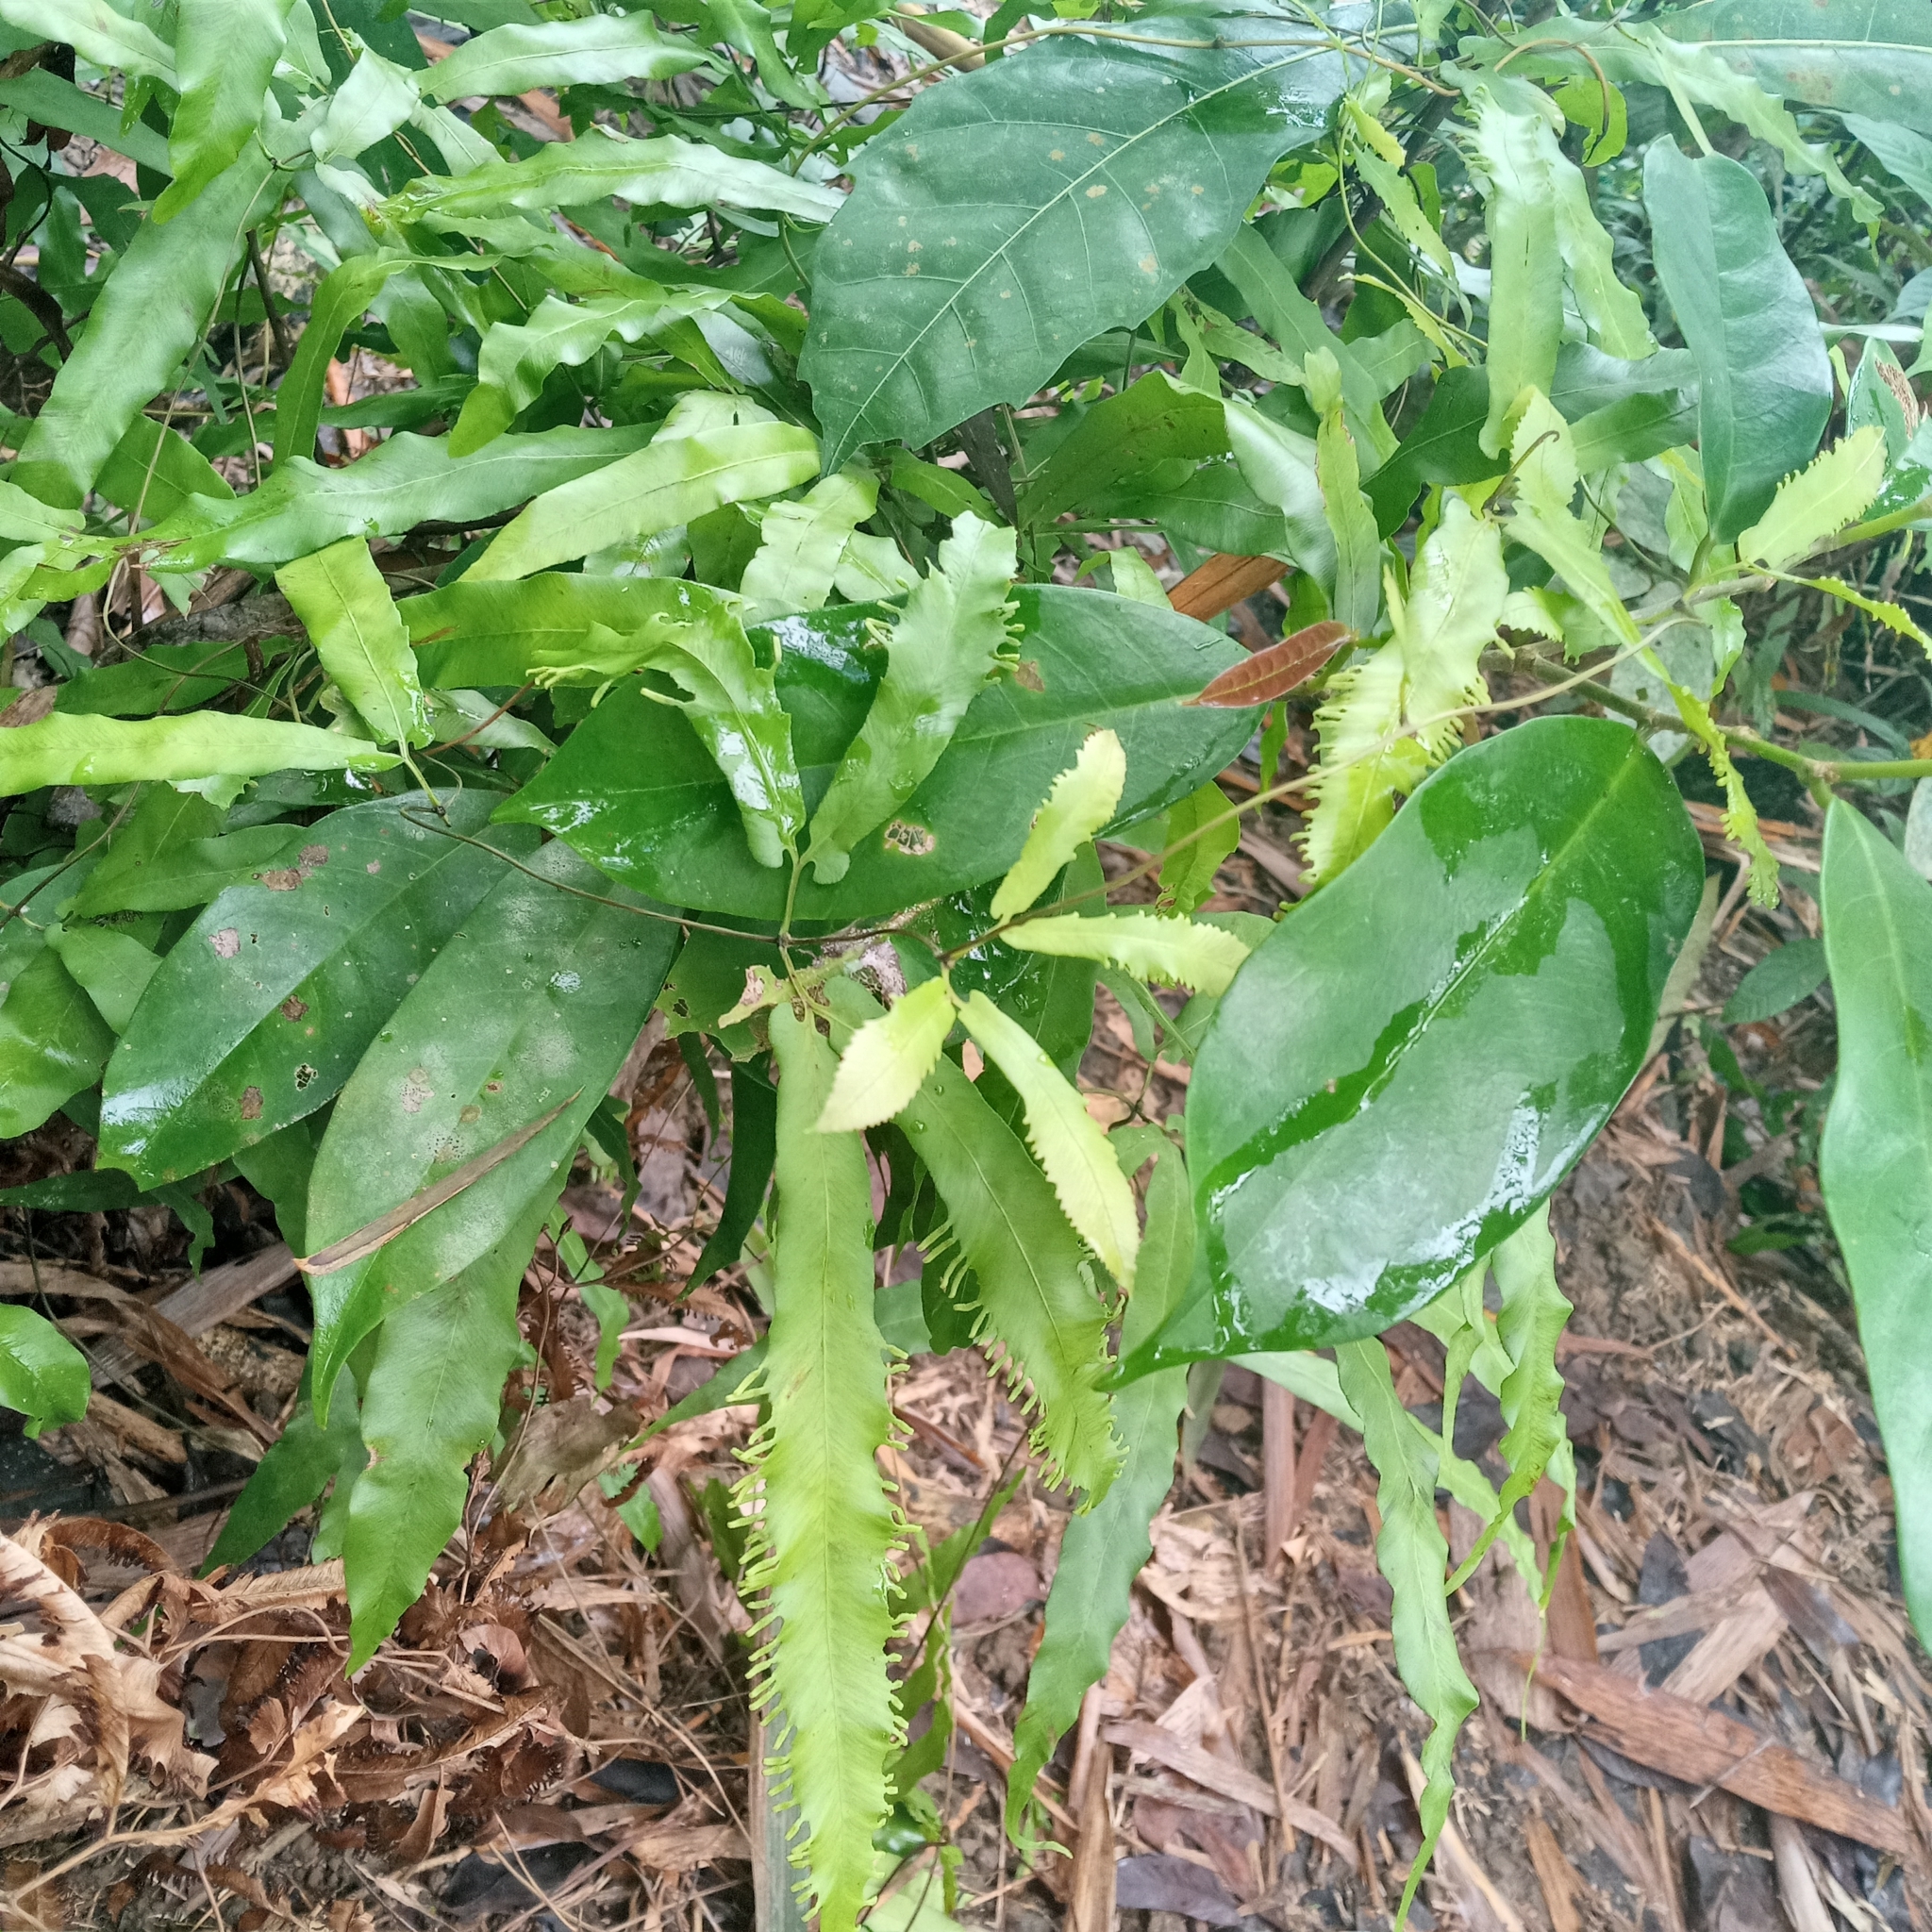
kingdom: Plantae
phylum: Tracheophyta
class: Polypodiopsida
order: Schizaeales
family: Lygodiaceae
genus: Lygodium
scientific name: Lygodium auriculatum
